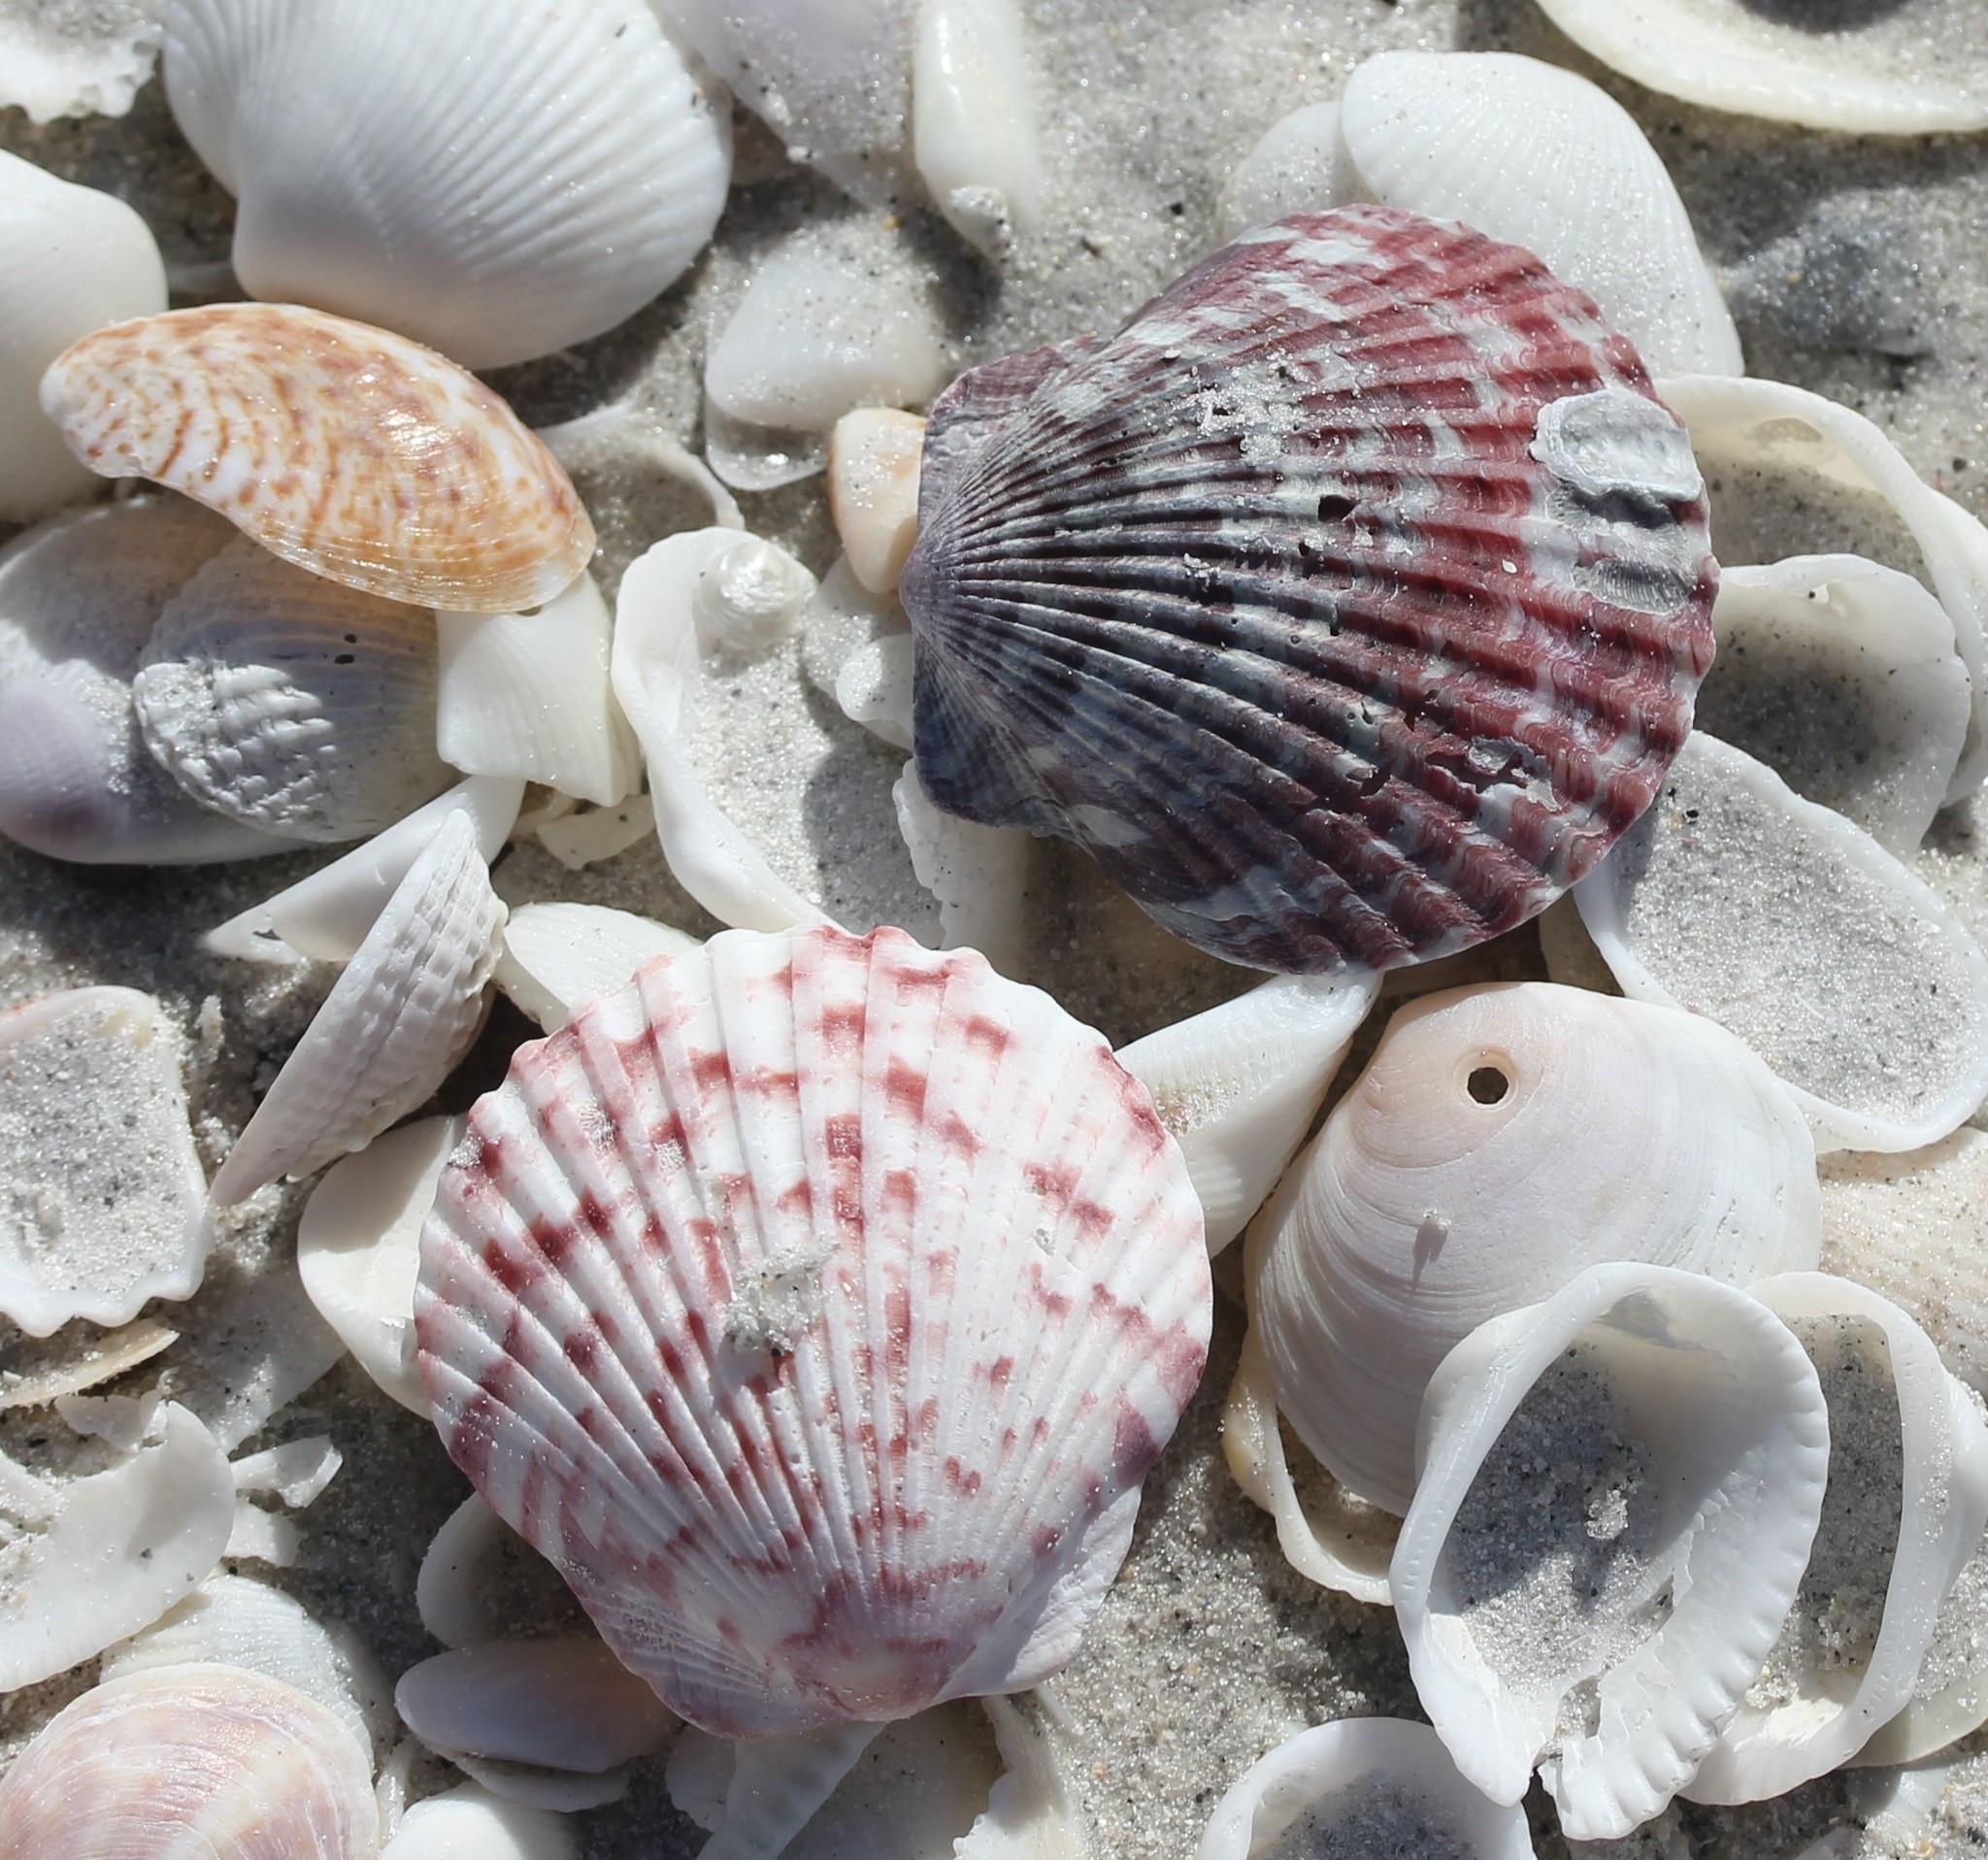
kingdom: Animalia
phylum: Mollusca
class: Bivalvia
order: Pectinida
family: Pectinidae
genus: Argopecten
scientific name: Argopecten gibbus
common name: Atlantic calico scallop
